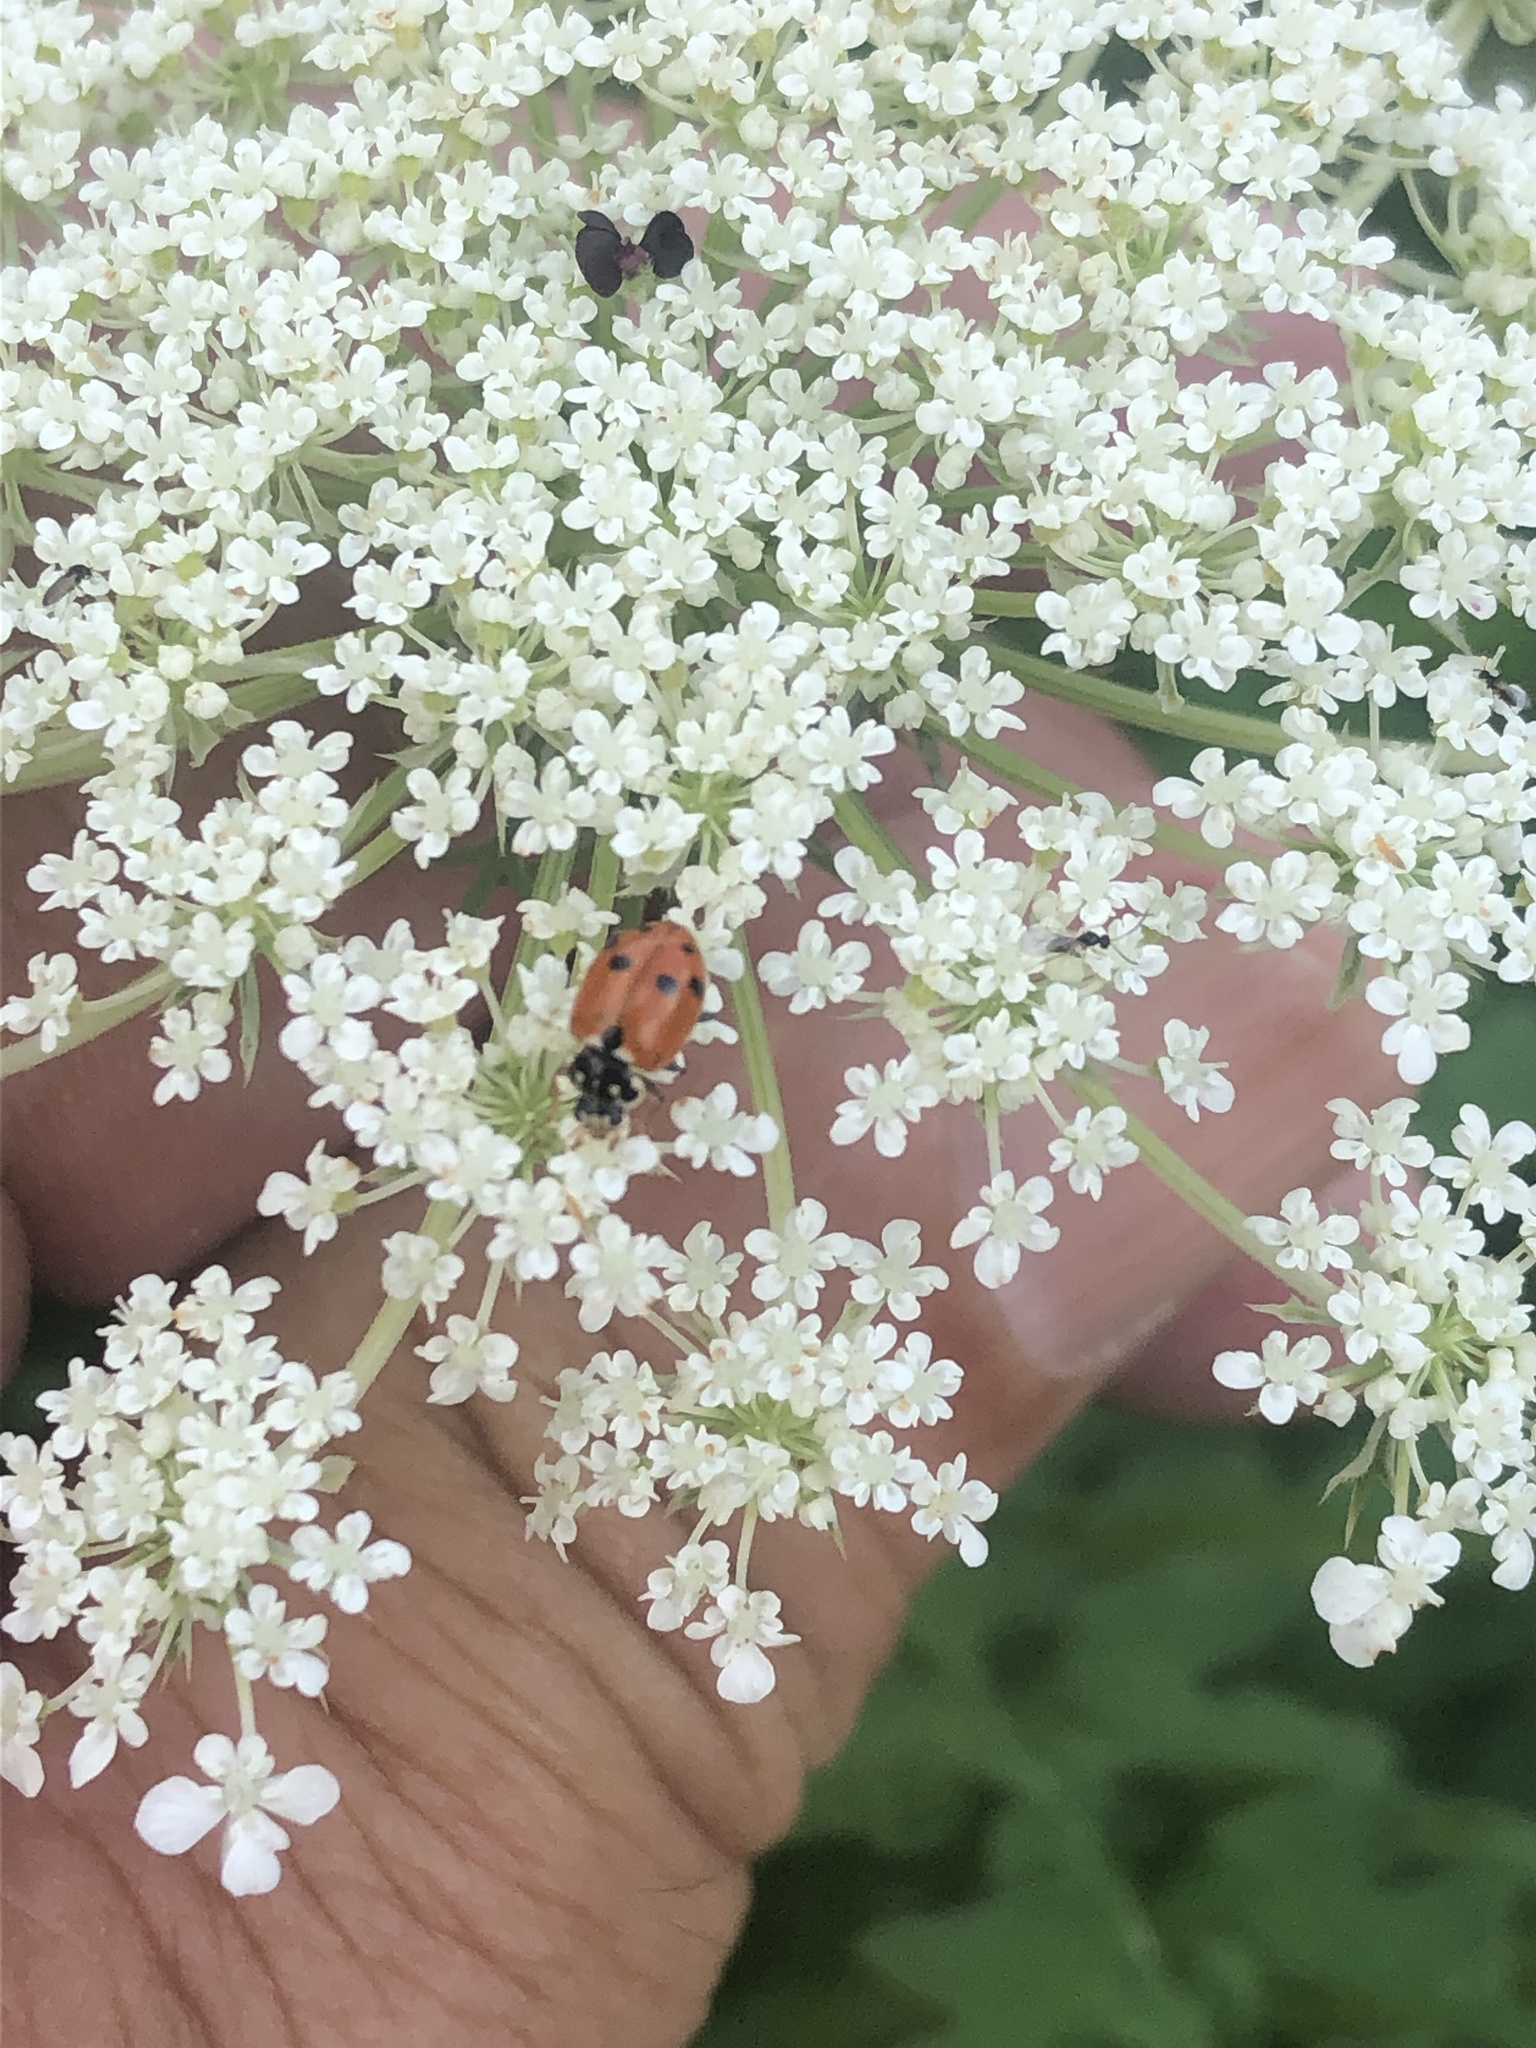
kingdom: Animalia
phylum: Arthropoda
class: Insecta
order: Coleoptera
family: Coccinellidae
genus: Hippodamia
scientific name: Hippodamia variegata
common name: Ladybird beetle
